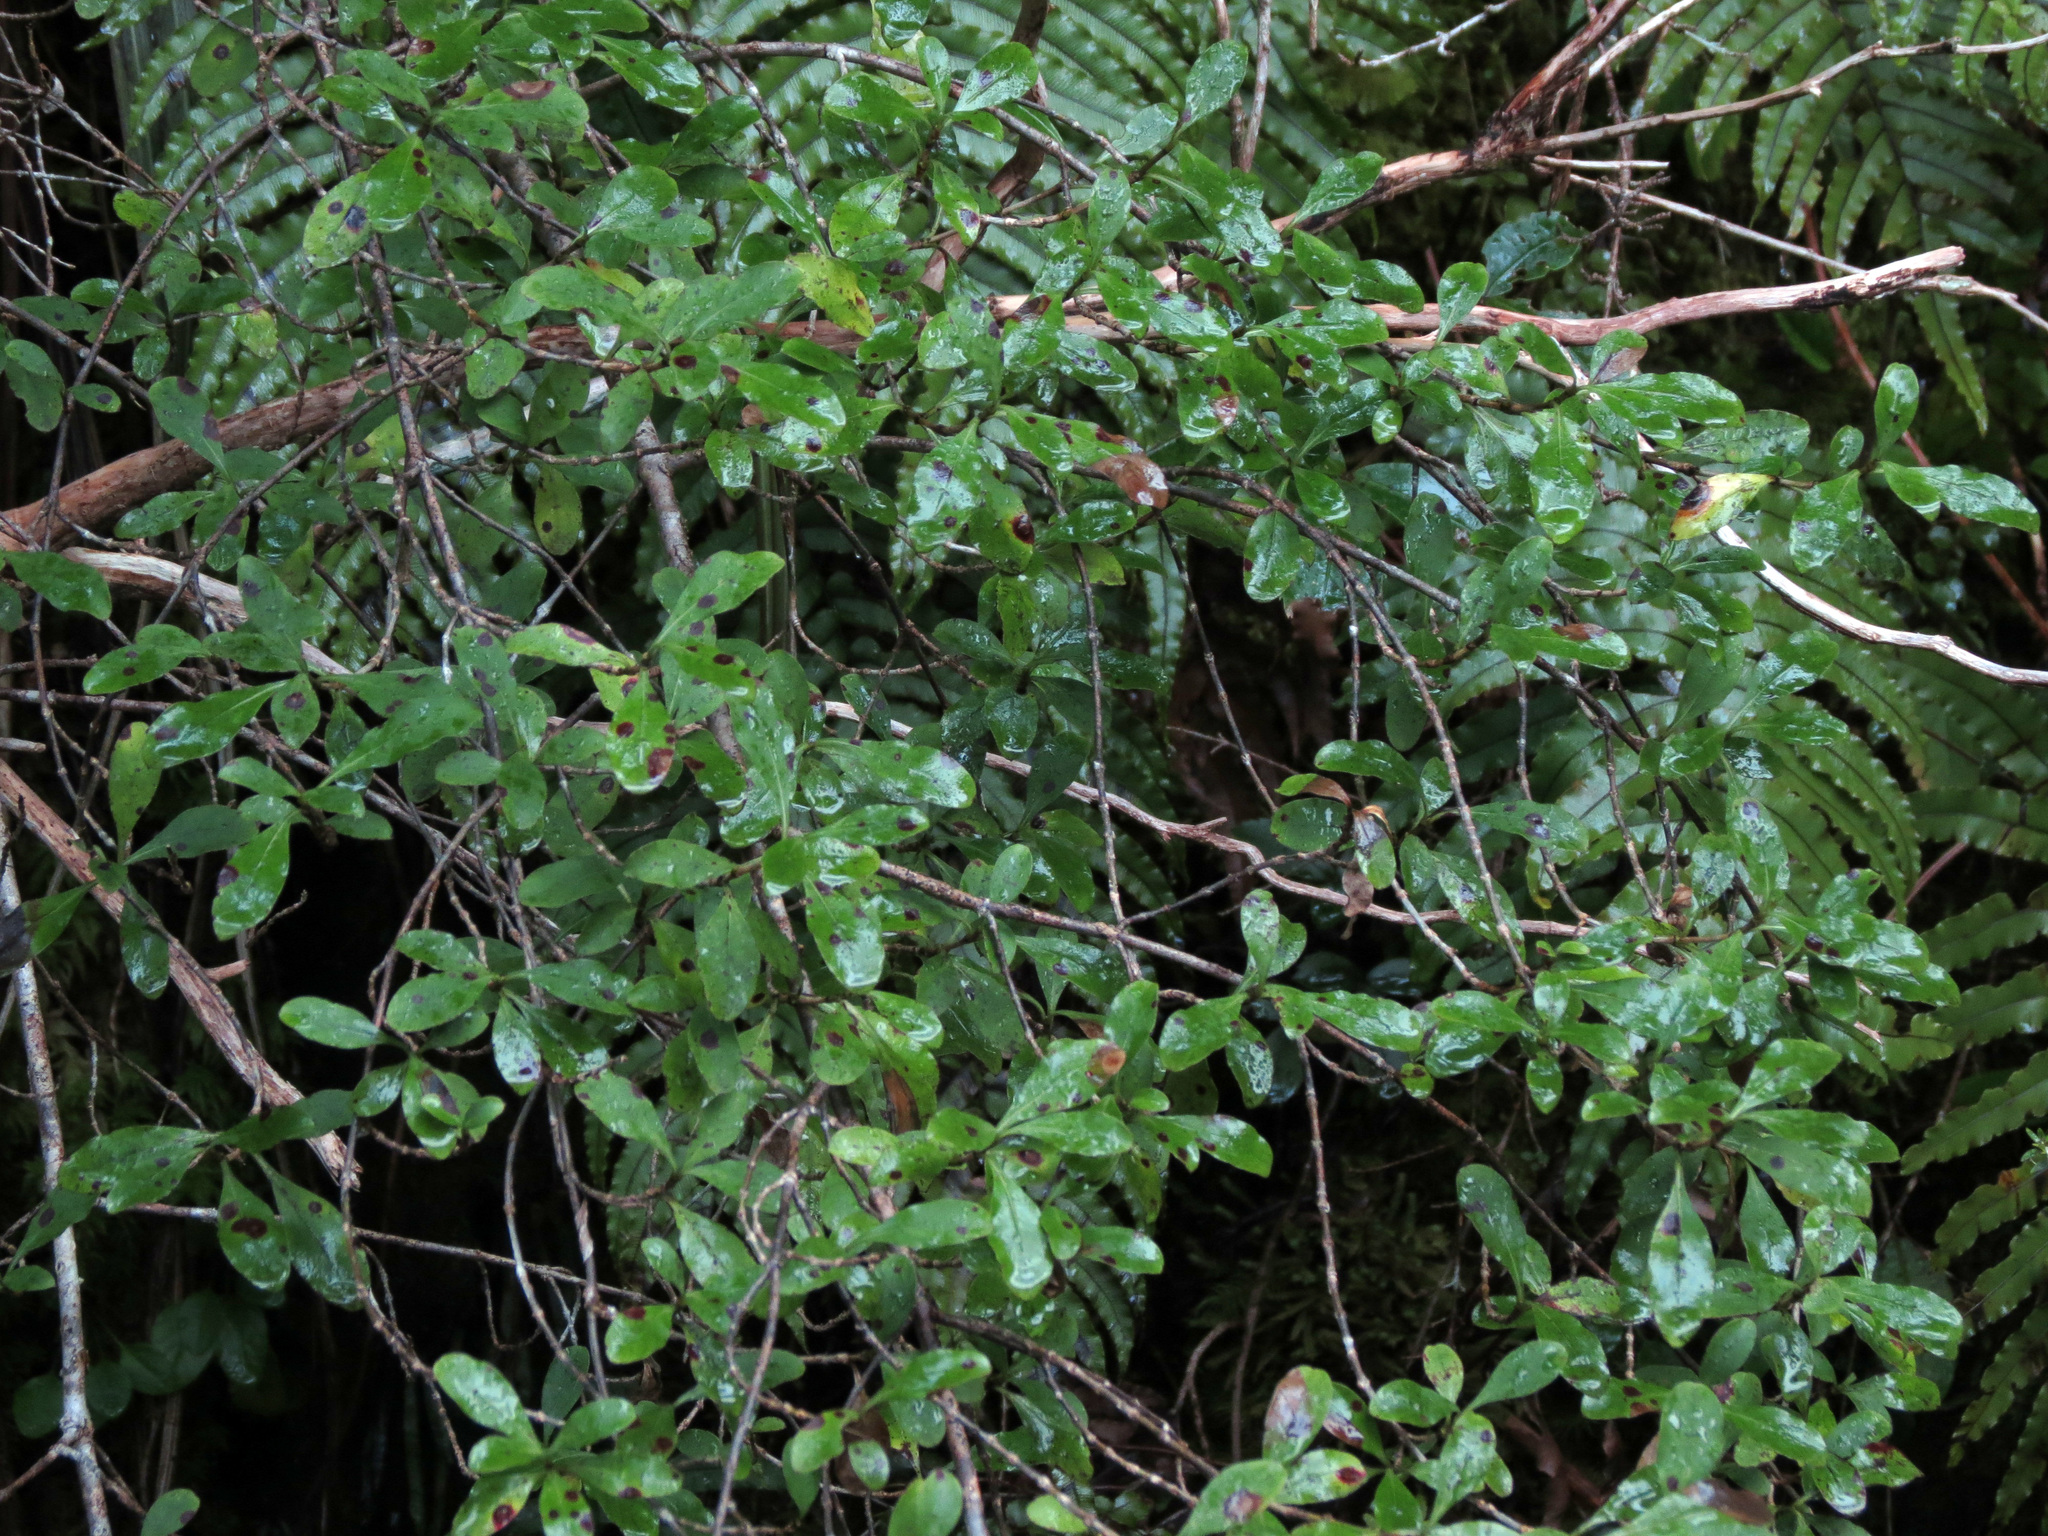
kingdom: Plantae
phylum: Tracheophyta
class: Magnoliopsida
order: Gentianales
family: Rubiaceae
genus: Coprosma
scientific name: Coprosma foetidissima
